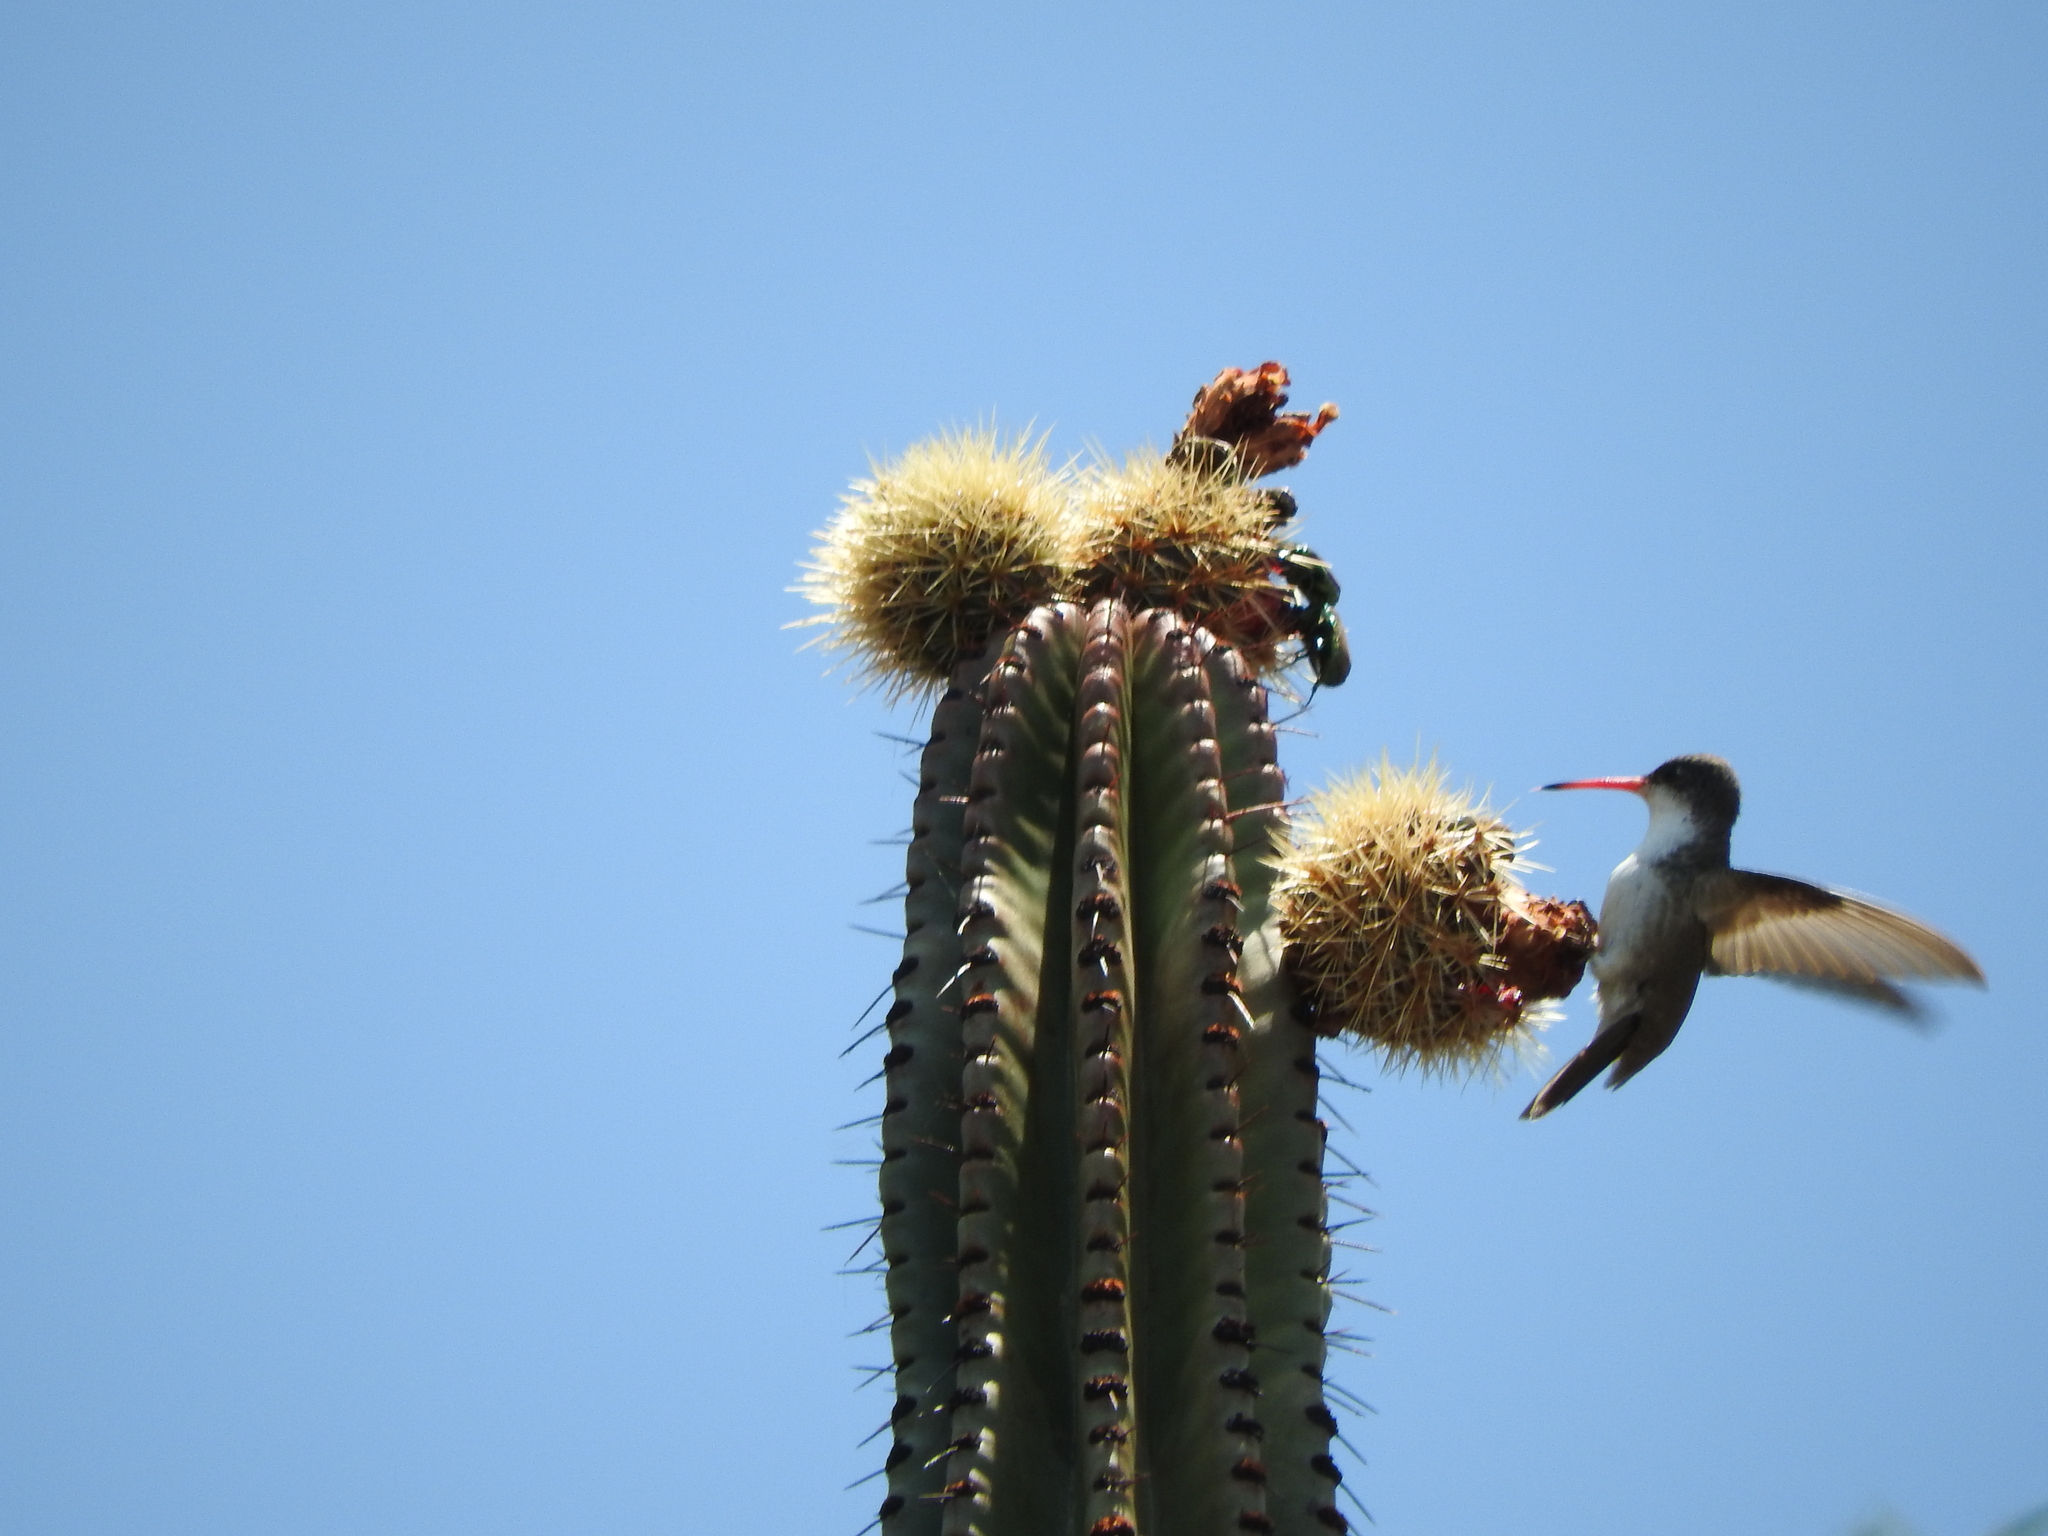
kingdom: Plantae
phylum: Tracheophyta
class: Magnoliopsida
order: Caryophyllales
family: Cactaceae
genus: Stenocereus
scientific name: Stenocereus queretaroensis
